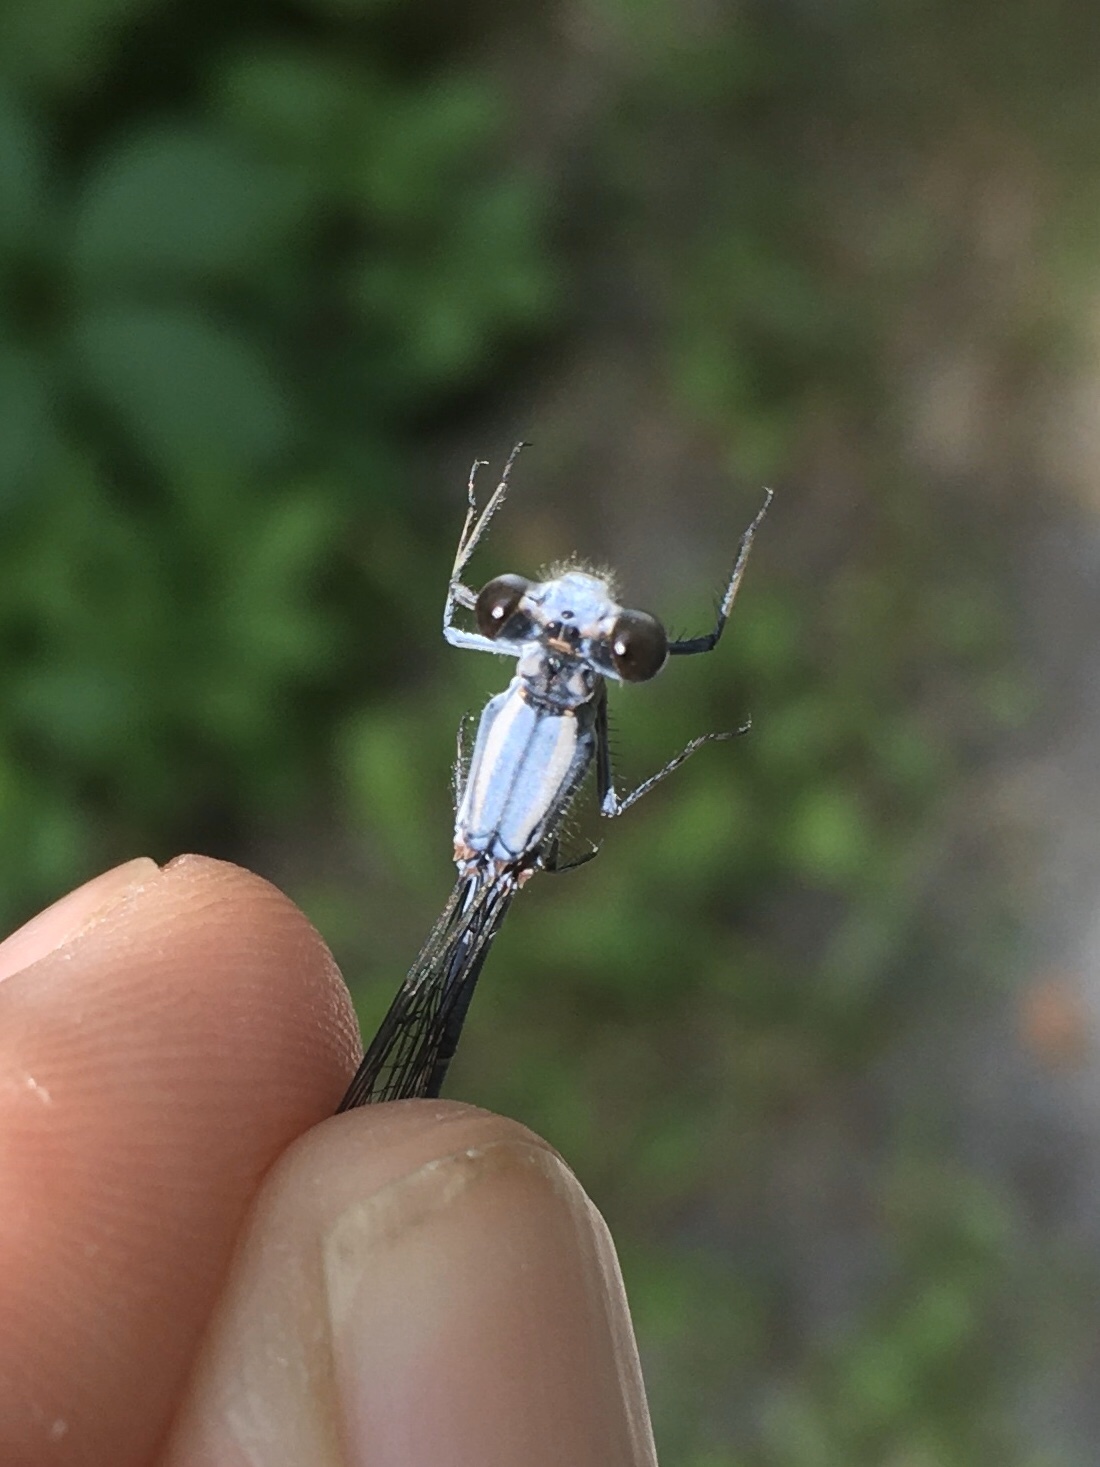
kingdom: Animalia
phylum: Arthropoda
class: Insecta
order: Odonata
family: Coenagrionidae
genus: Argia
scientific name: Argia moesta
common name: Powdered dancer
